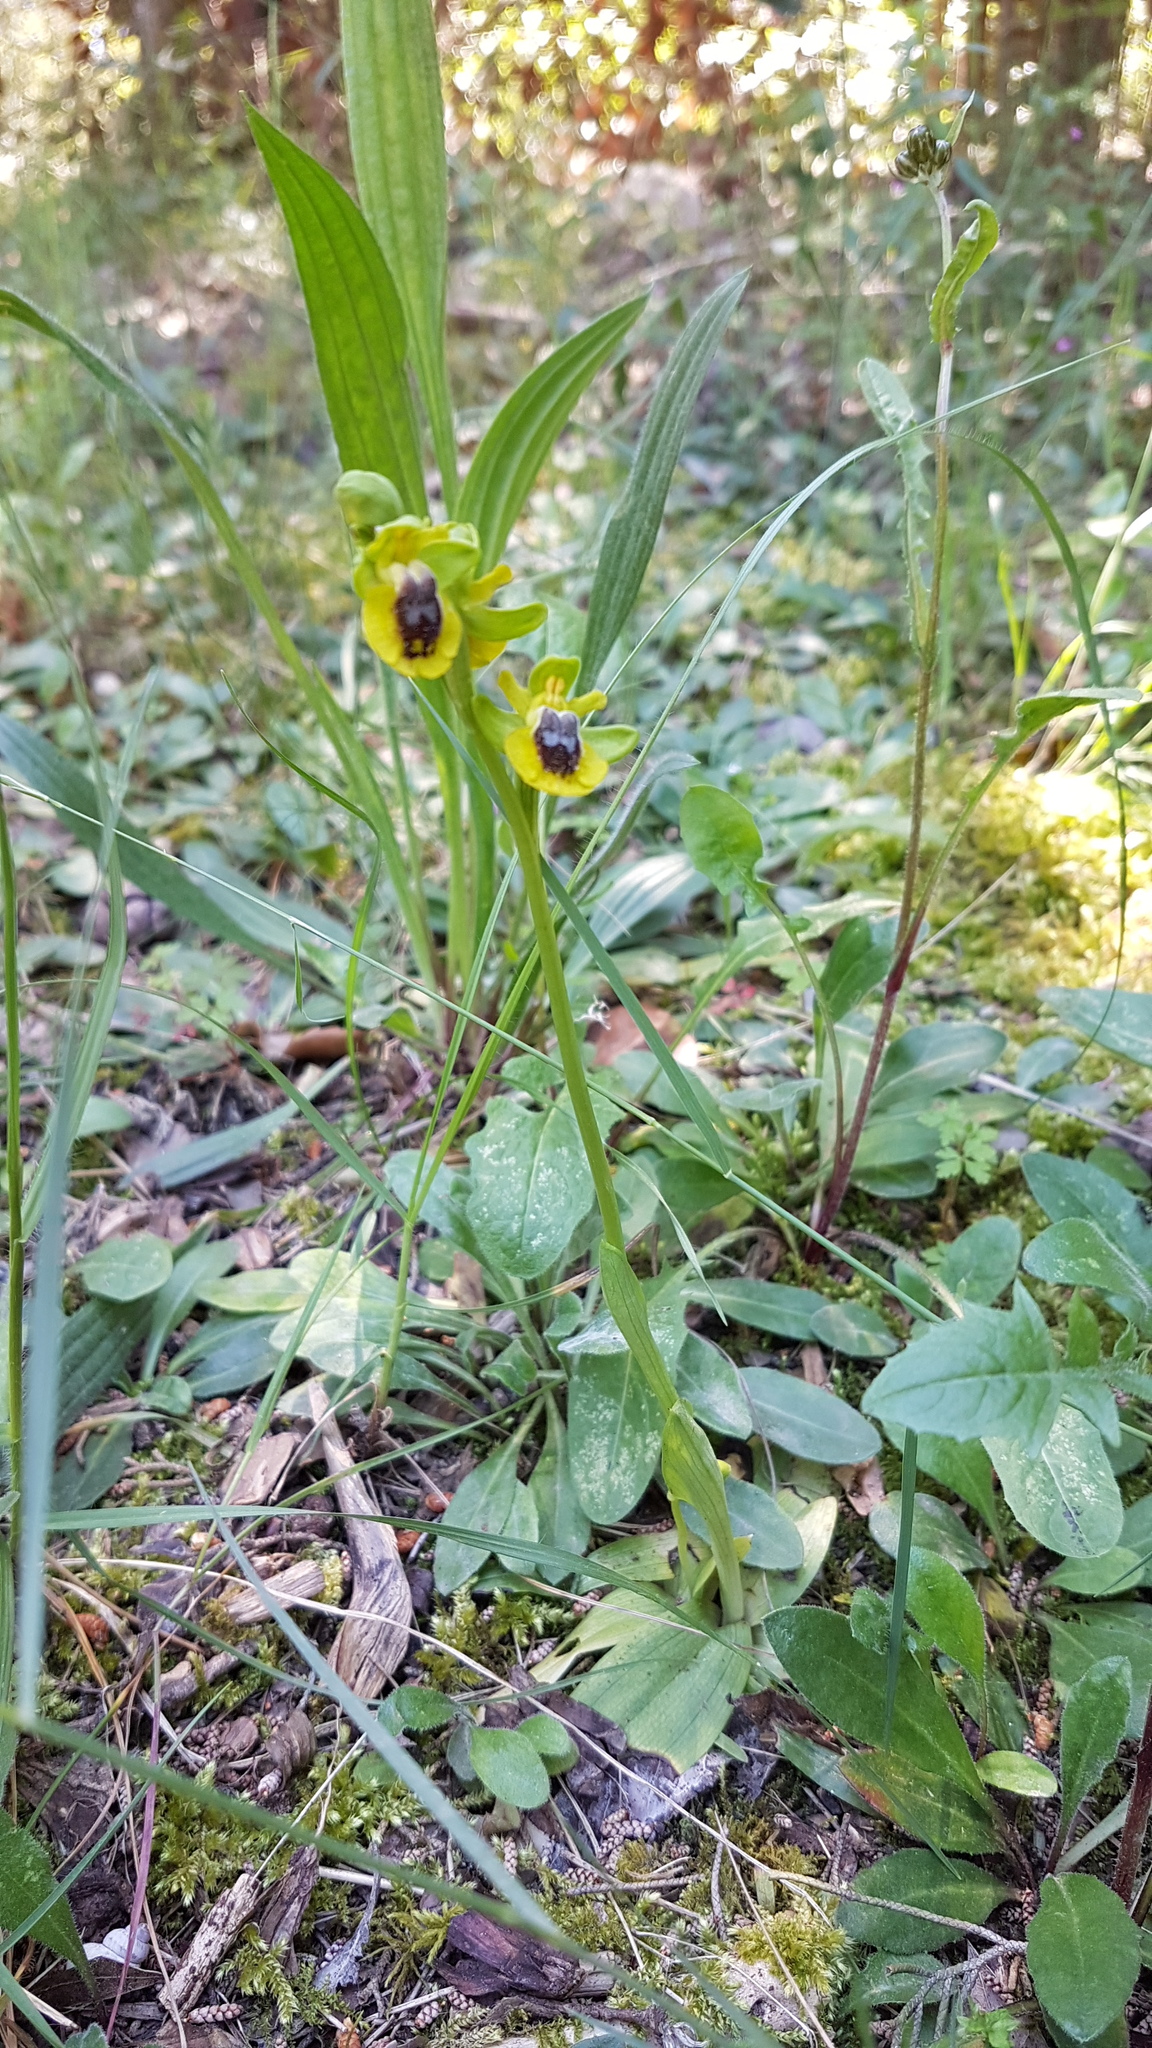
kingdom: Plantae
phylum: Tracheophyta
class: Liliopsida
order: Asparagales
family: Orchidaceae
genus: Ophrys
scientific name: Ophrys lutea
